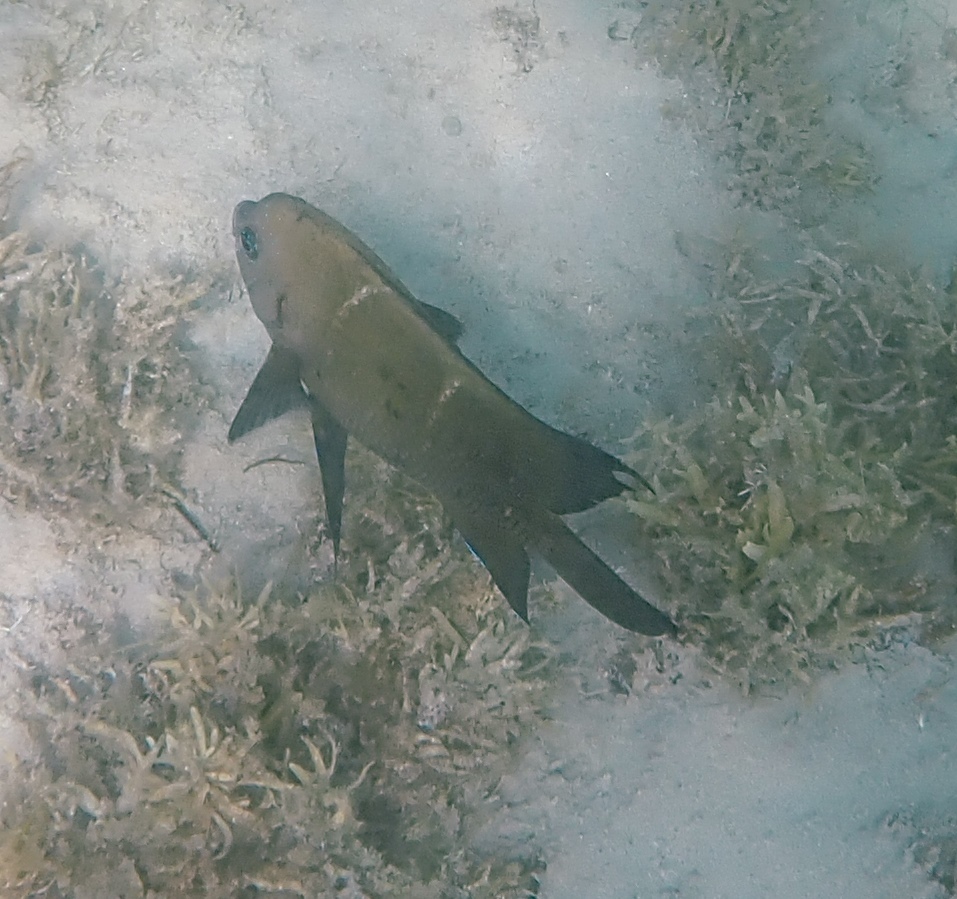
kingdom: Animalia
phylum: Chordata
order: Perciformes
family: Pomacentridae
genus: Parma
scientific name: Parma occidentalis
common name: Western scalyfin
